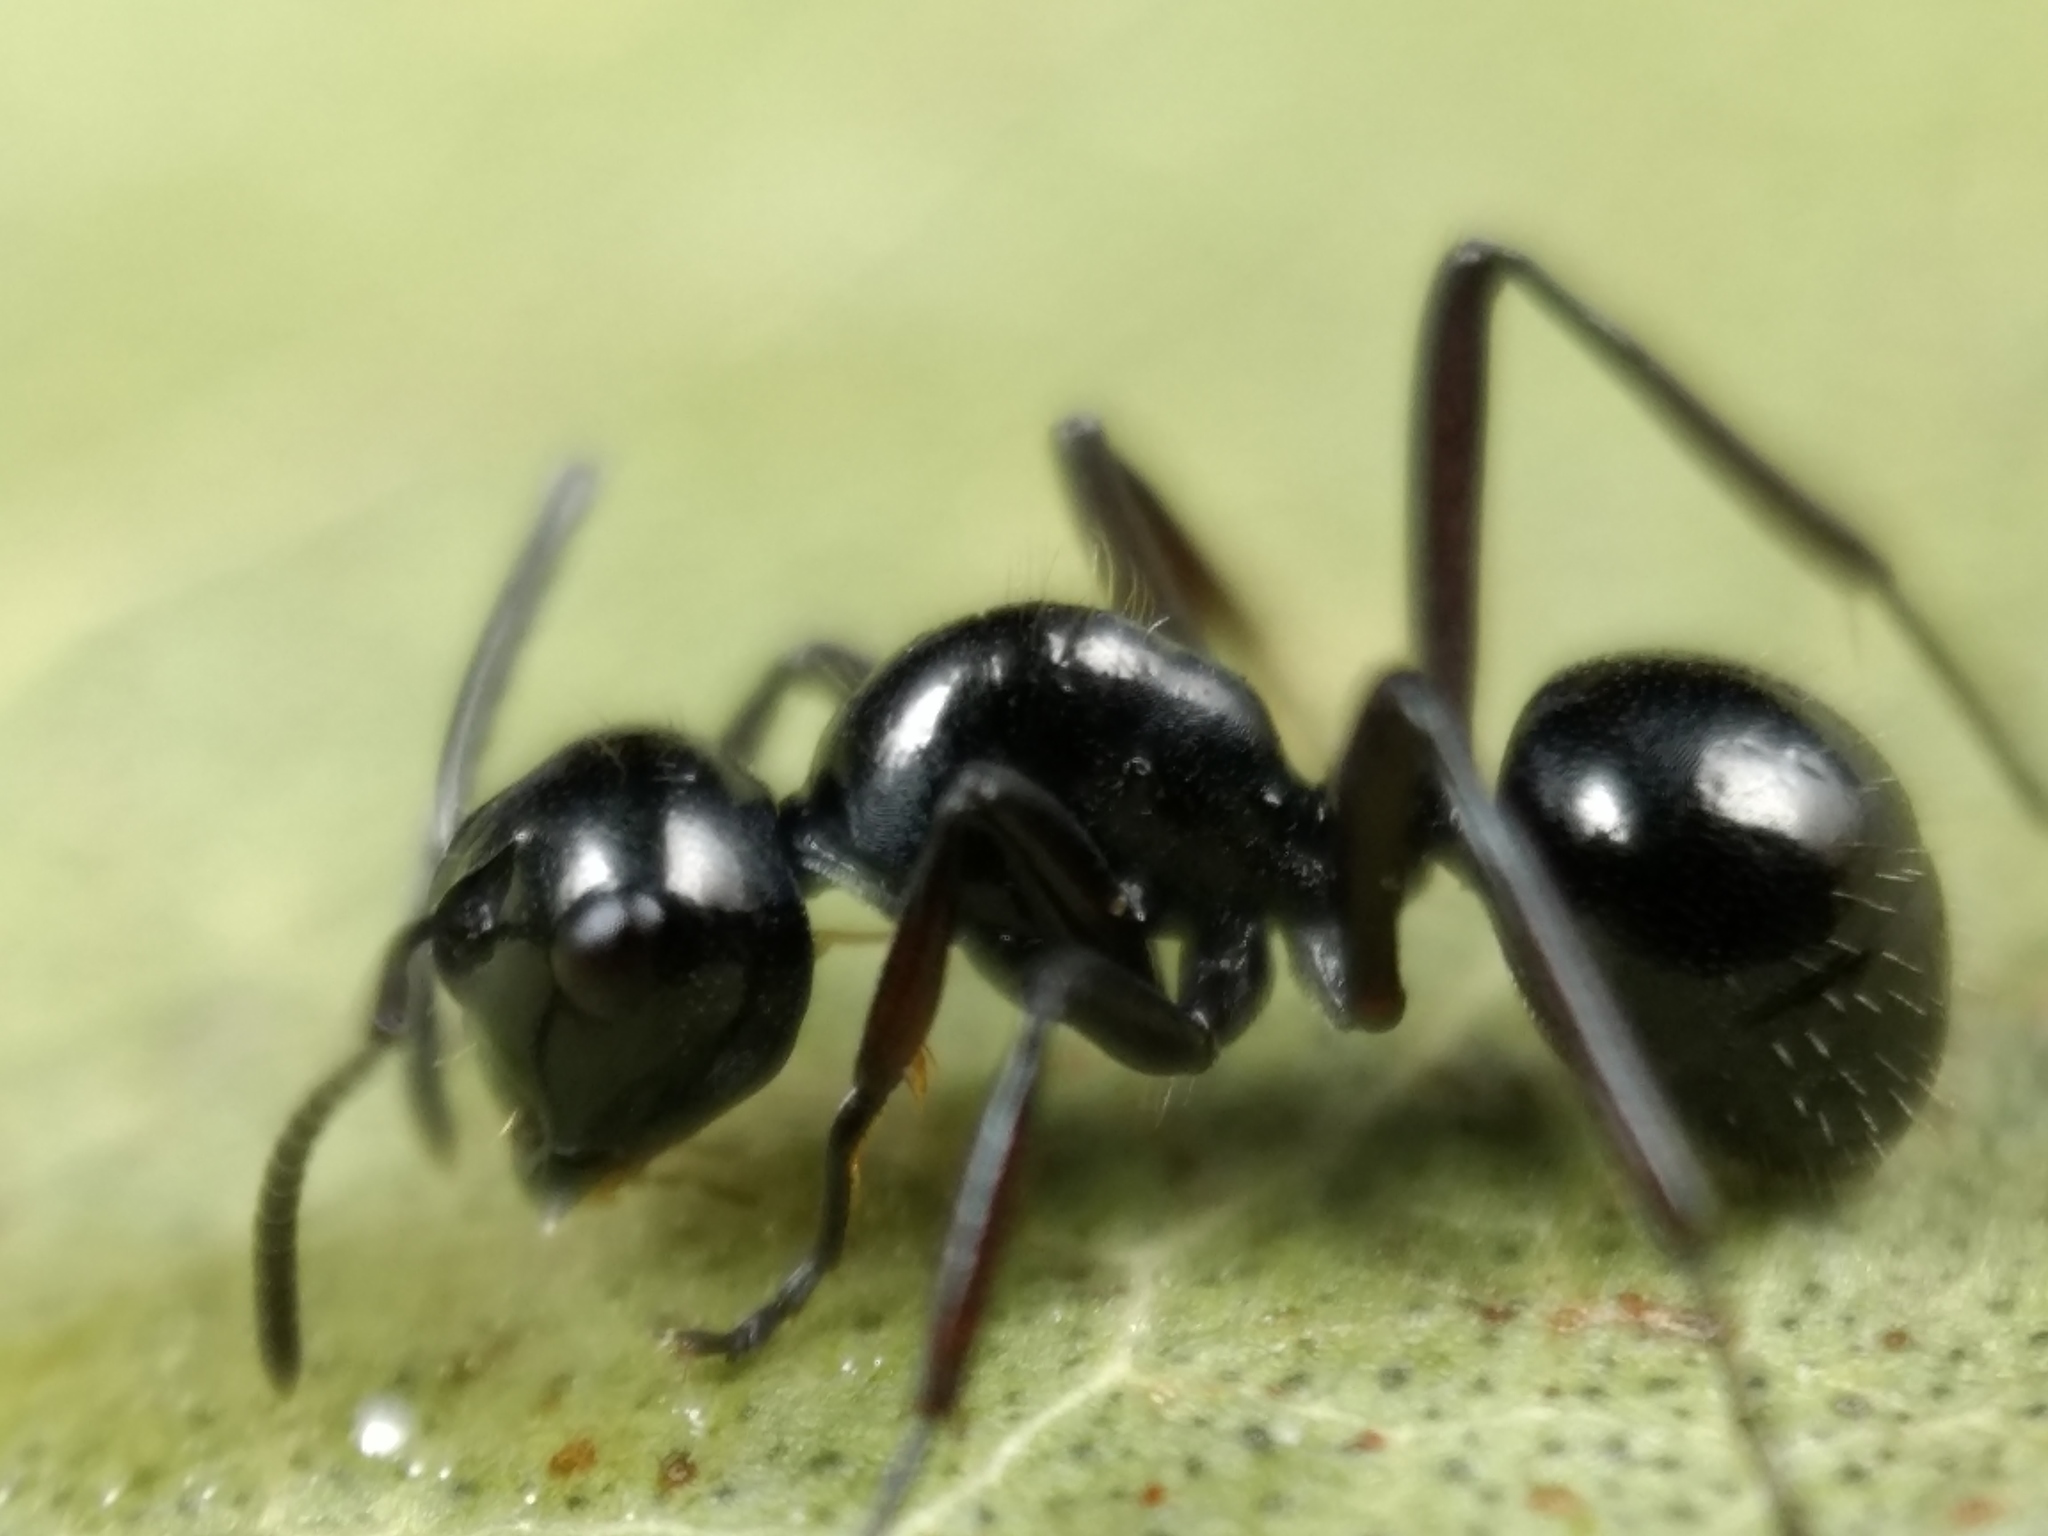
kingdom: Animalia
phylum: Arthropoda
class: Insecta
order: Hymenoptera
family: Formicidae
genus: Polyrhachis
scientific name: Polyrhachis pilosa
